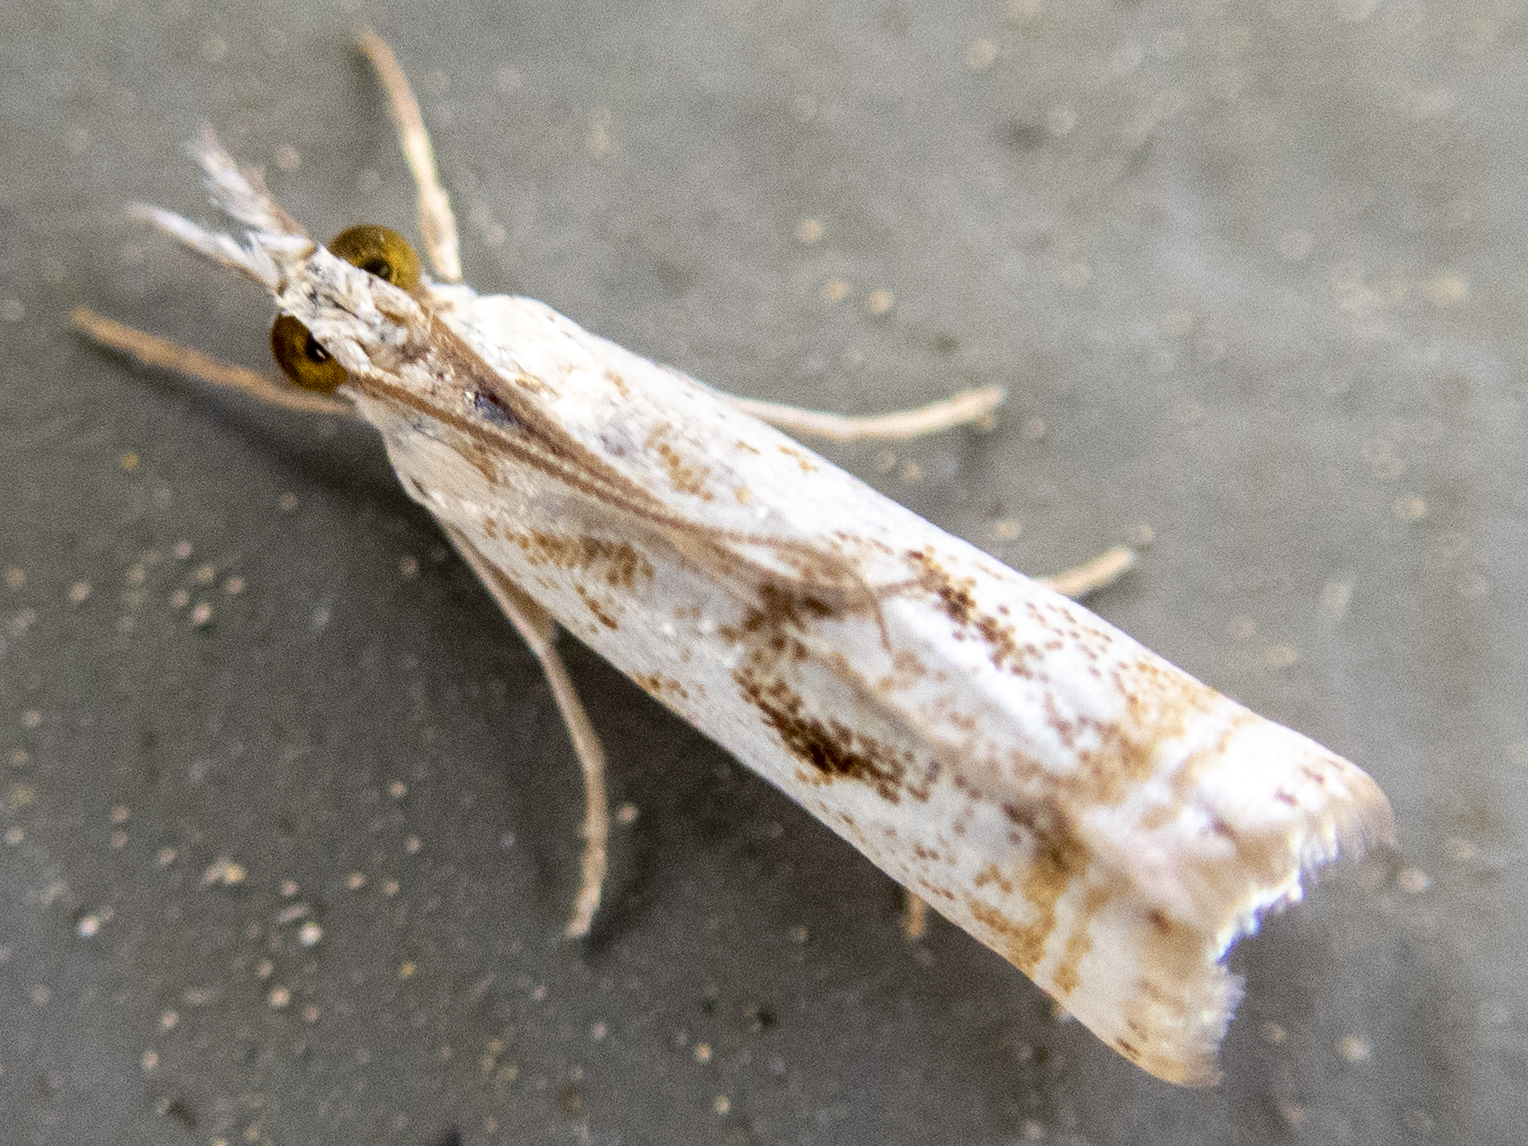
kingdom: Animalia
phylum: Arthropoda
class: Insecta
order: Lepidoptera
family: Crambidae
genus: Microcrambus
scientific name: Microcrambus elegans
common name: Elegant grass-veneer
